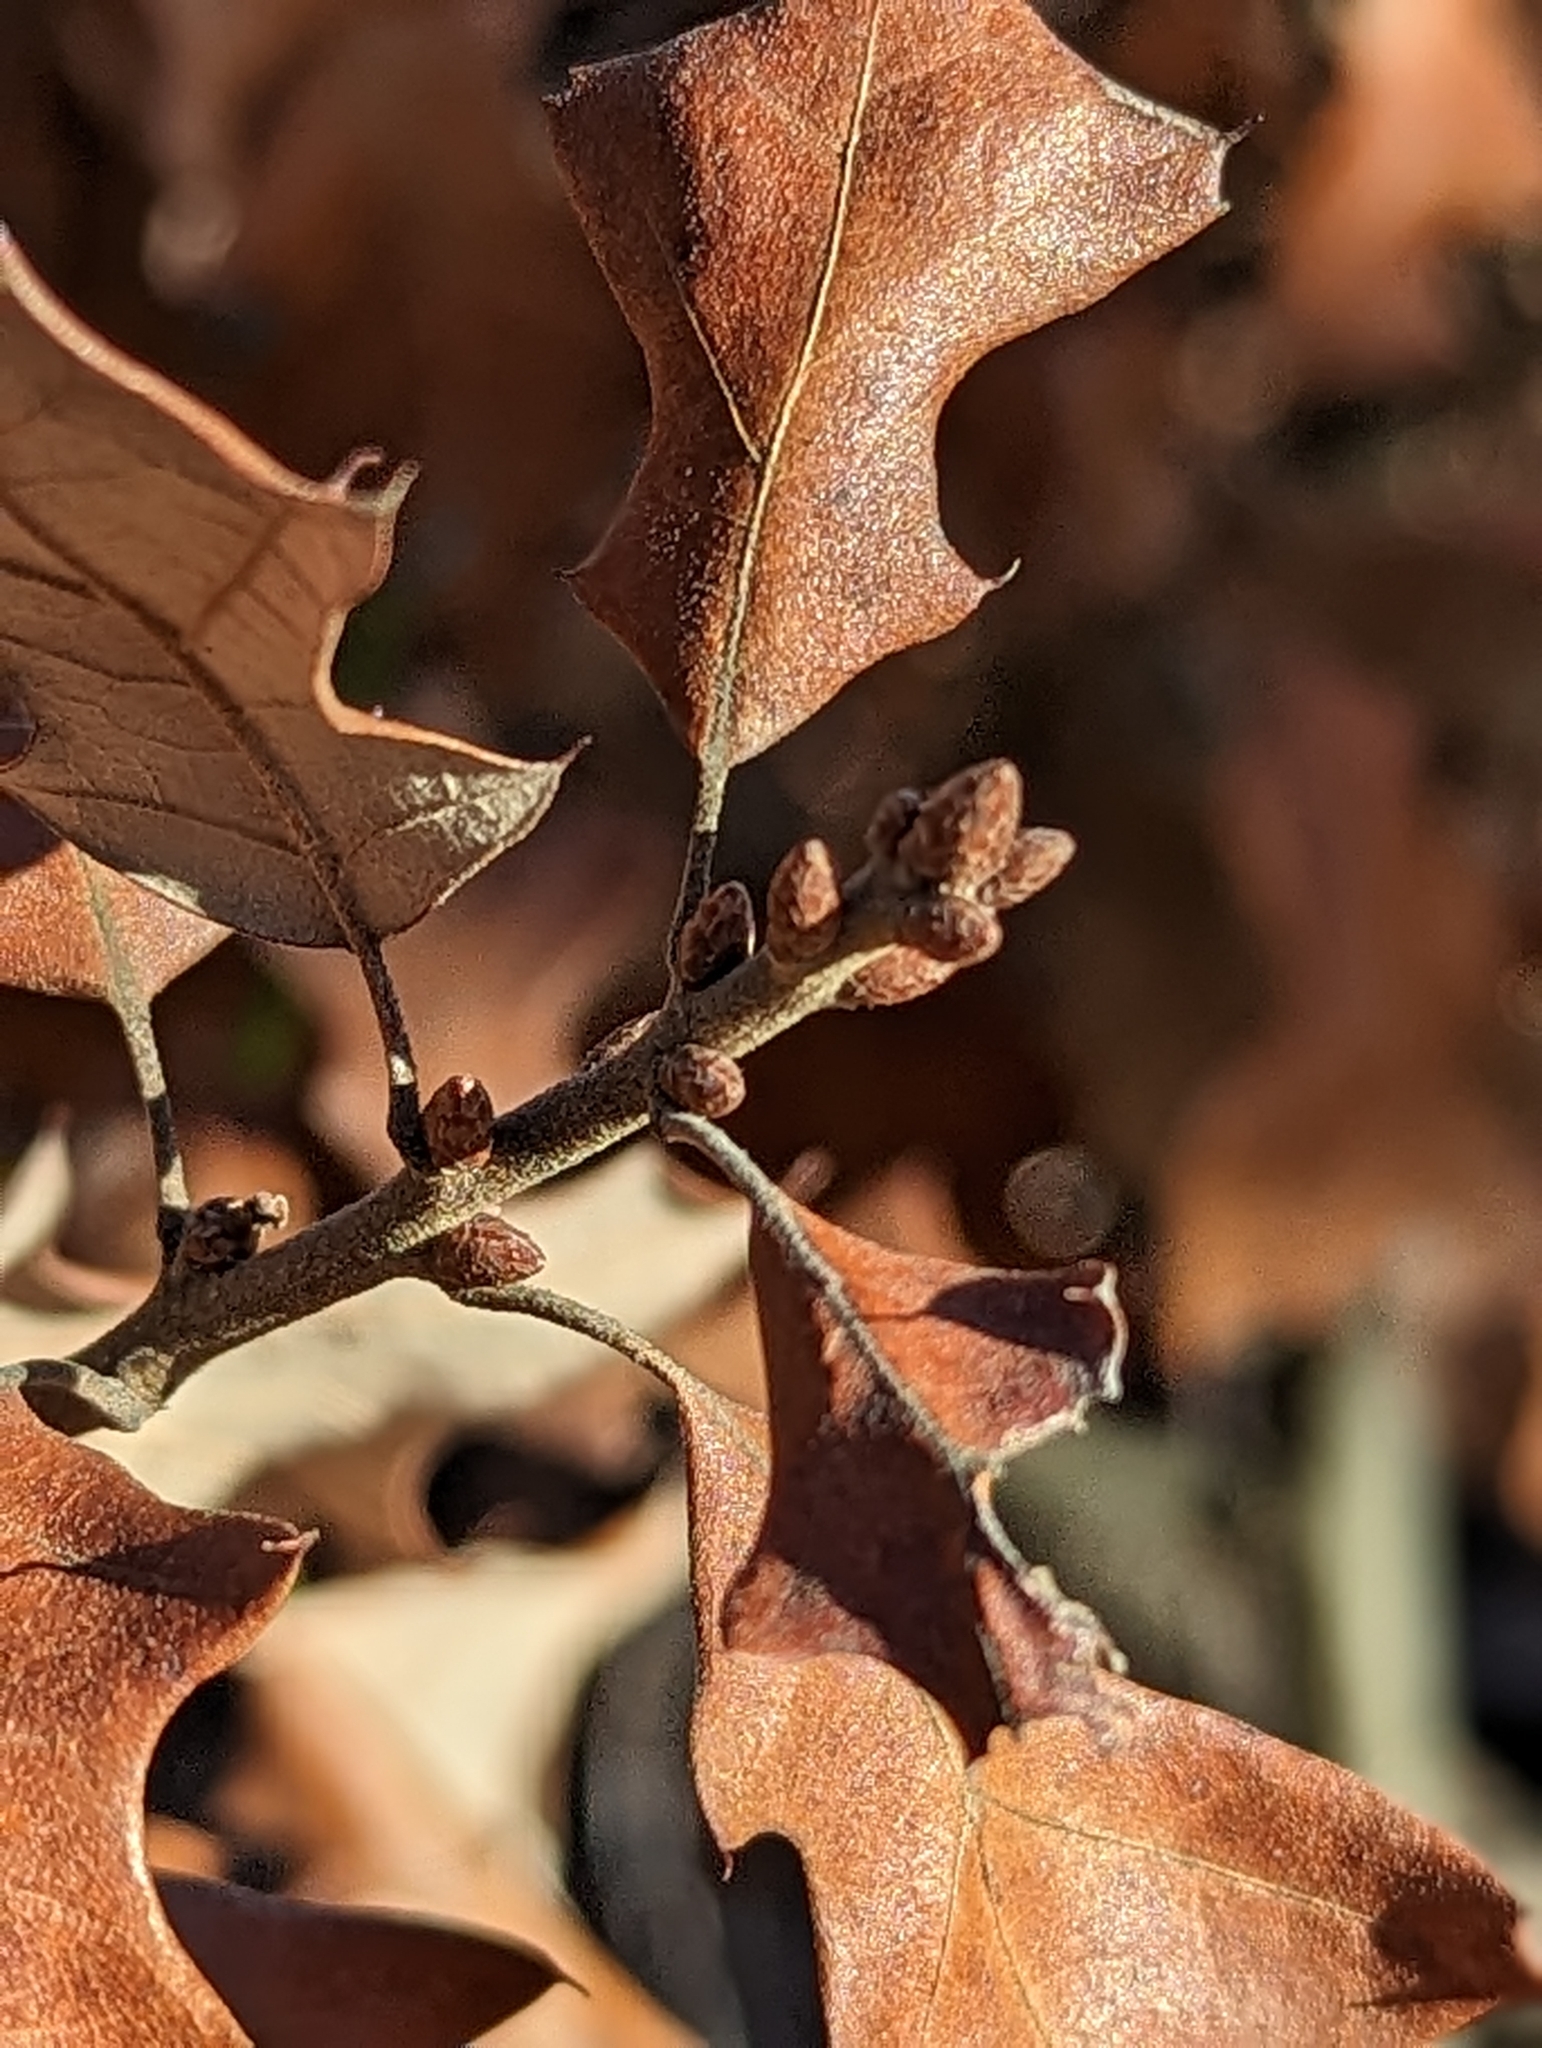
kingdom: Plantae
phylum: Tracheophyta
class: Magnoliopsida
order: Fagales
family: Fagaceae
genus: Quercus
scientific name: Quercus ilicifolia
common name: Bear oak
